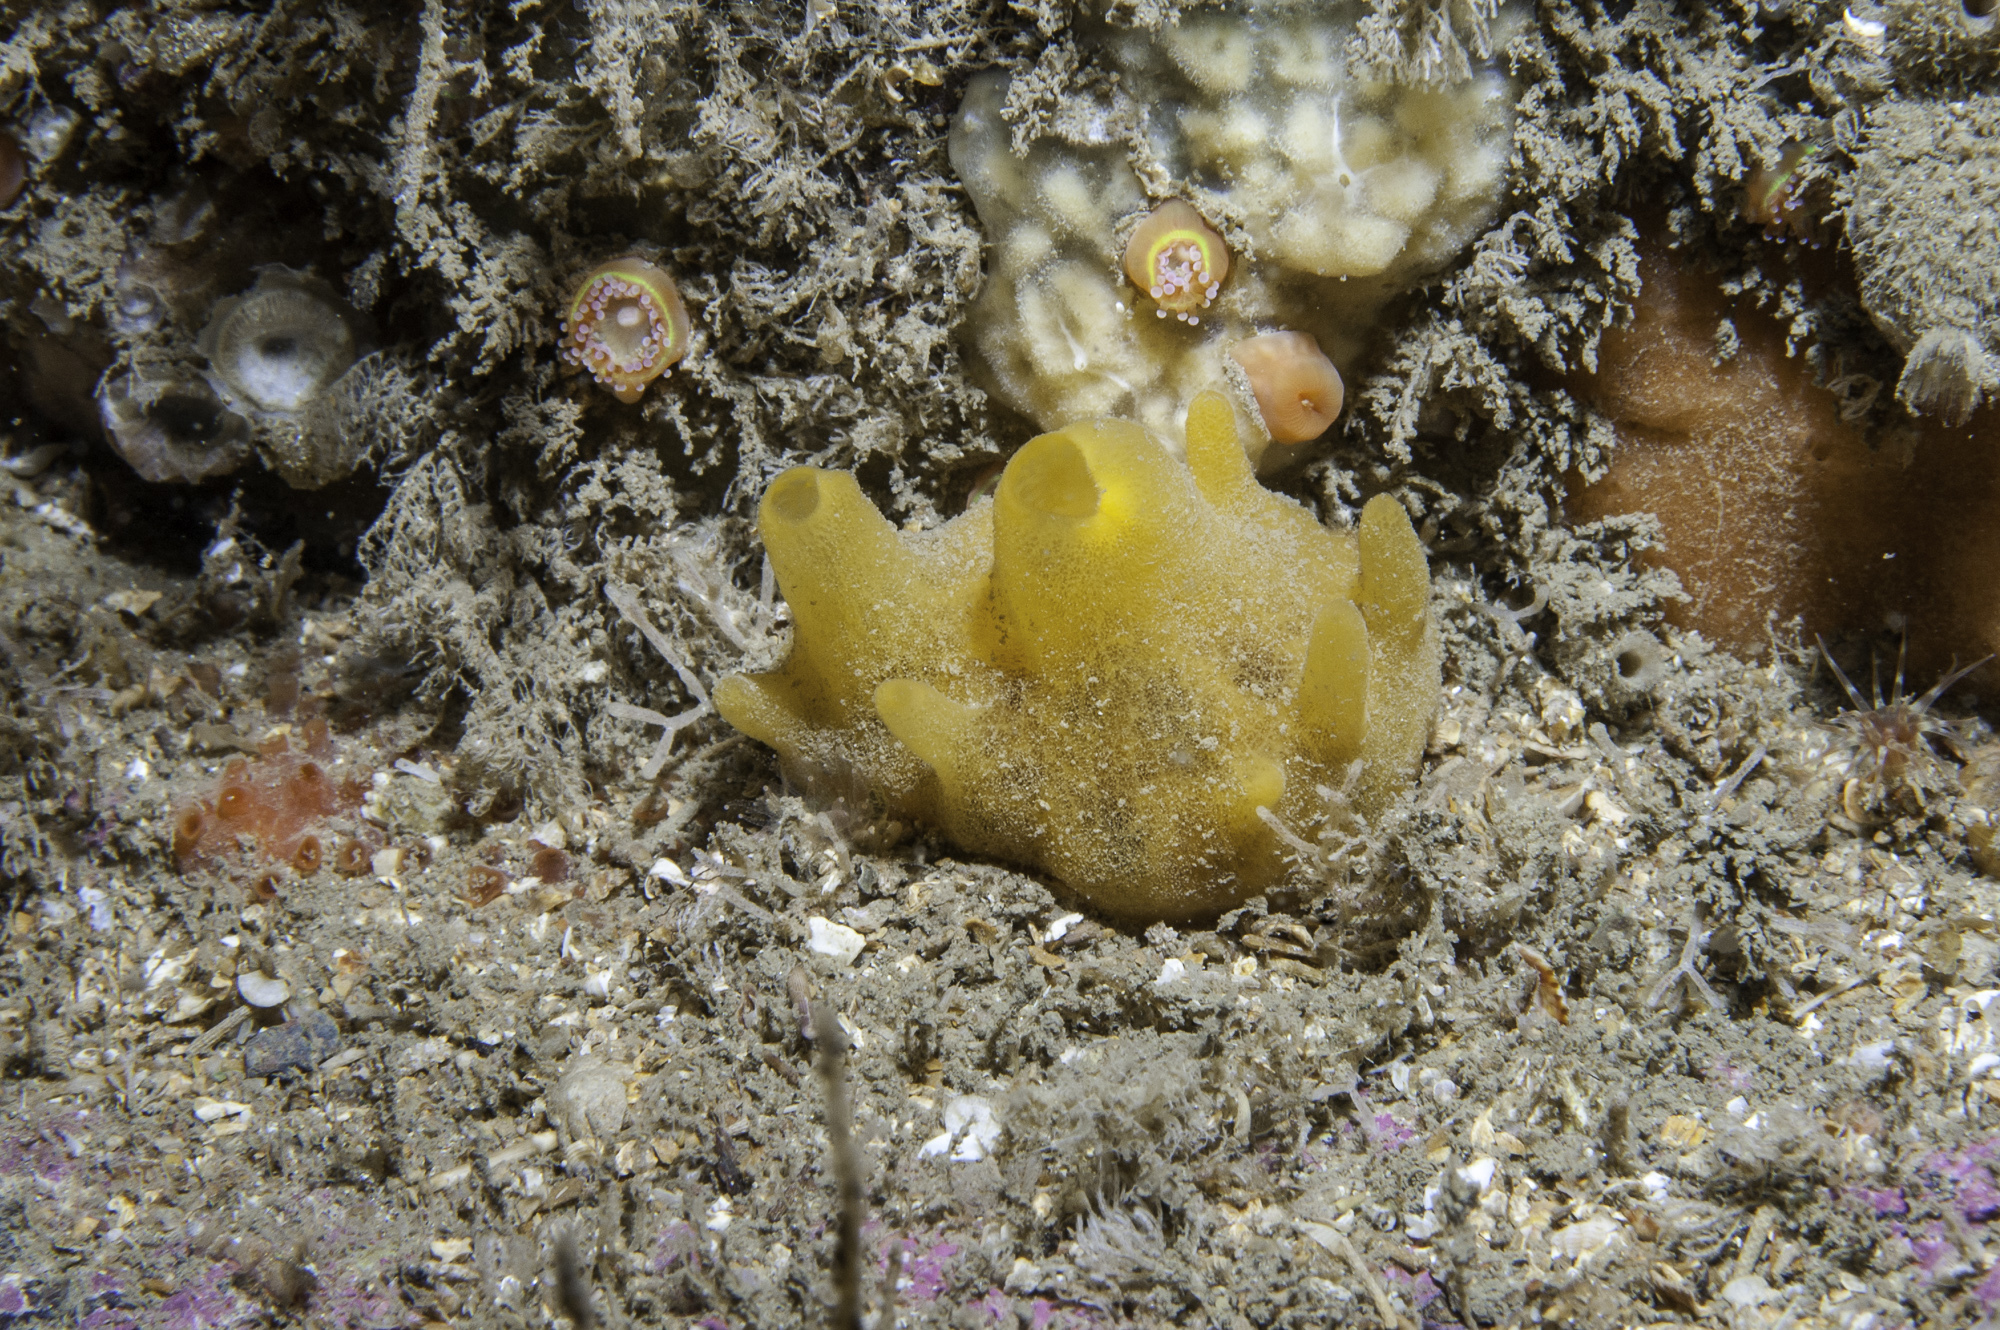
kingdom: Animalia
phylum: Porifera
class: Demospongiae
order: Polymastiida
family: Polymastiidae
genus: Polymastia
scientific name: Polymastia boletiformis
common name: Massive horny sponge
